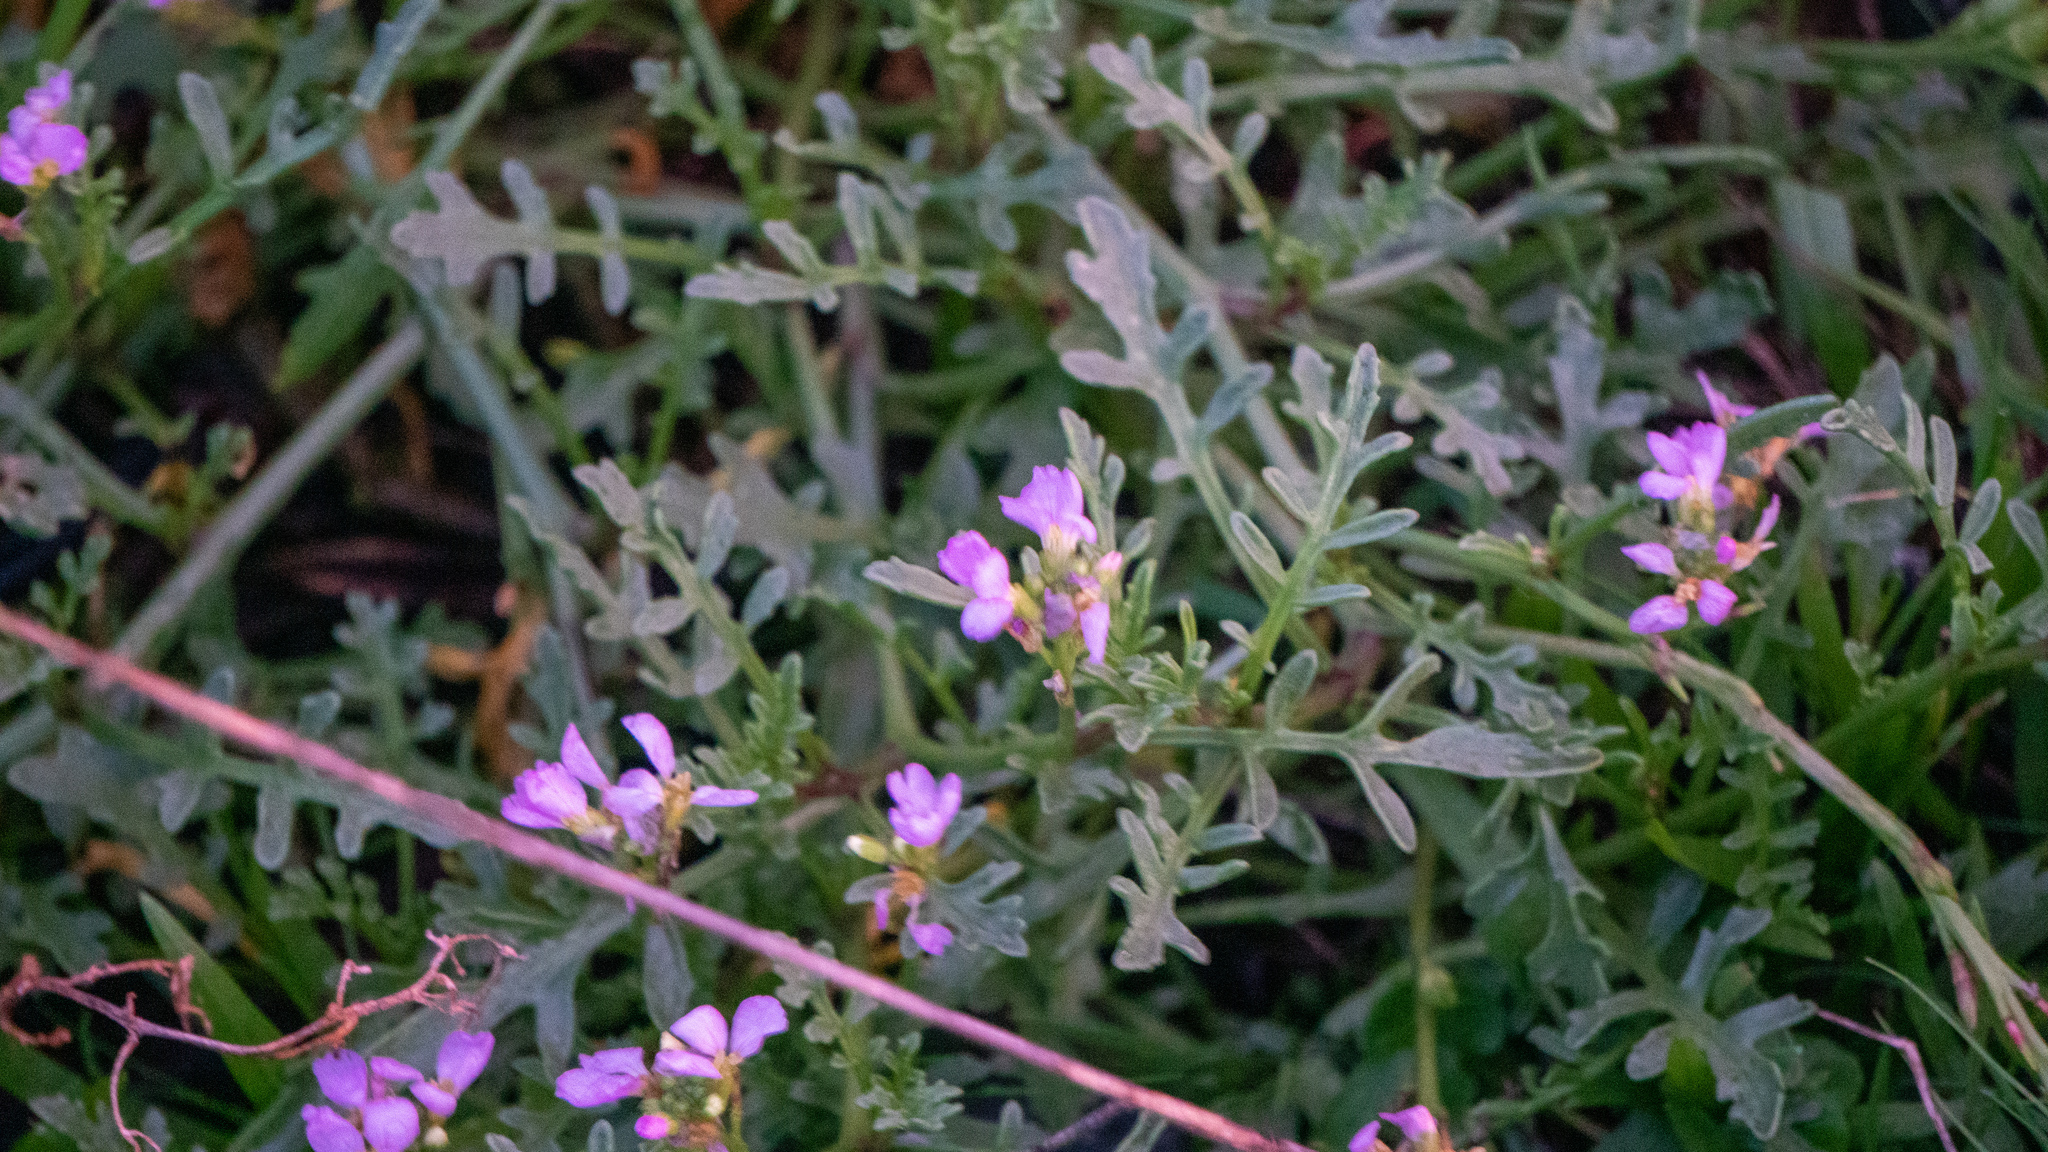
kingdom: Plantae
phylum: Tracheophyta
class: Magnoliopsida
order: Brassicales
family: Brassicaceae
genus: Cakile
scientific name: Cakile maritima
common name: Sea rocket
